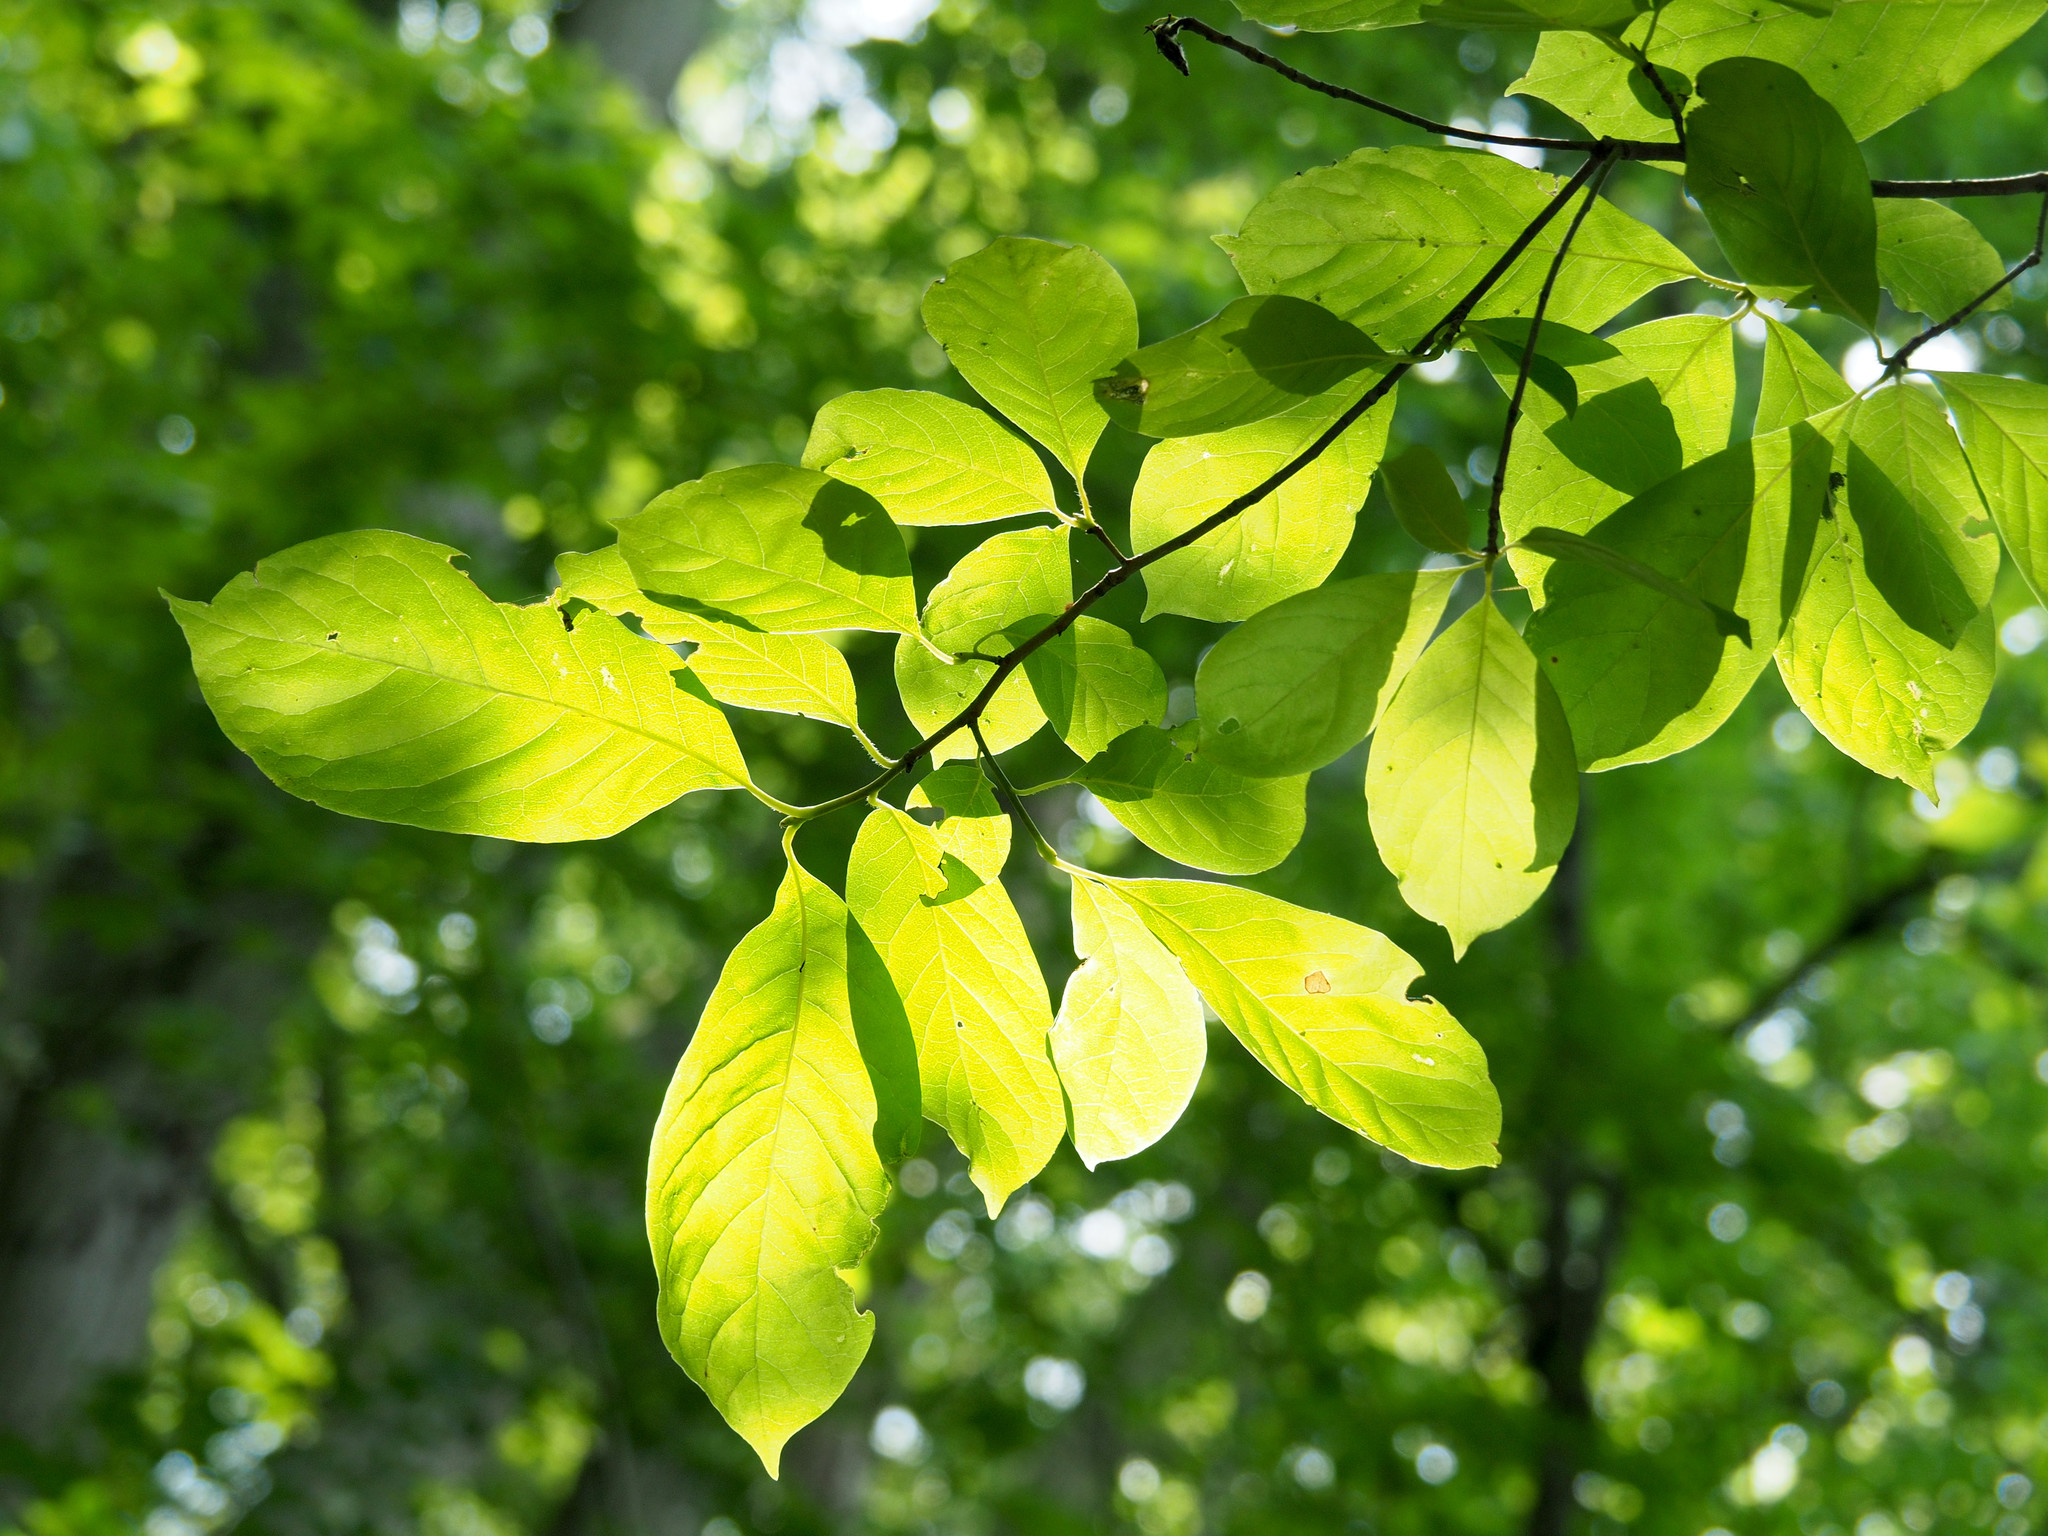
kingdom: Plantae
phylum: Tracheophyta
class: Magnoliopsida
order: Cornales
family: Nyssaceae
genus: Nyssa
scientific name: Nyssa sylvatica
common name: Black tupelo
